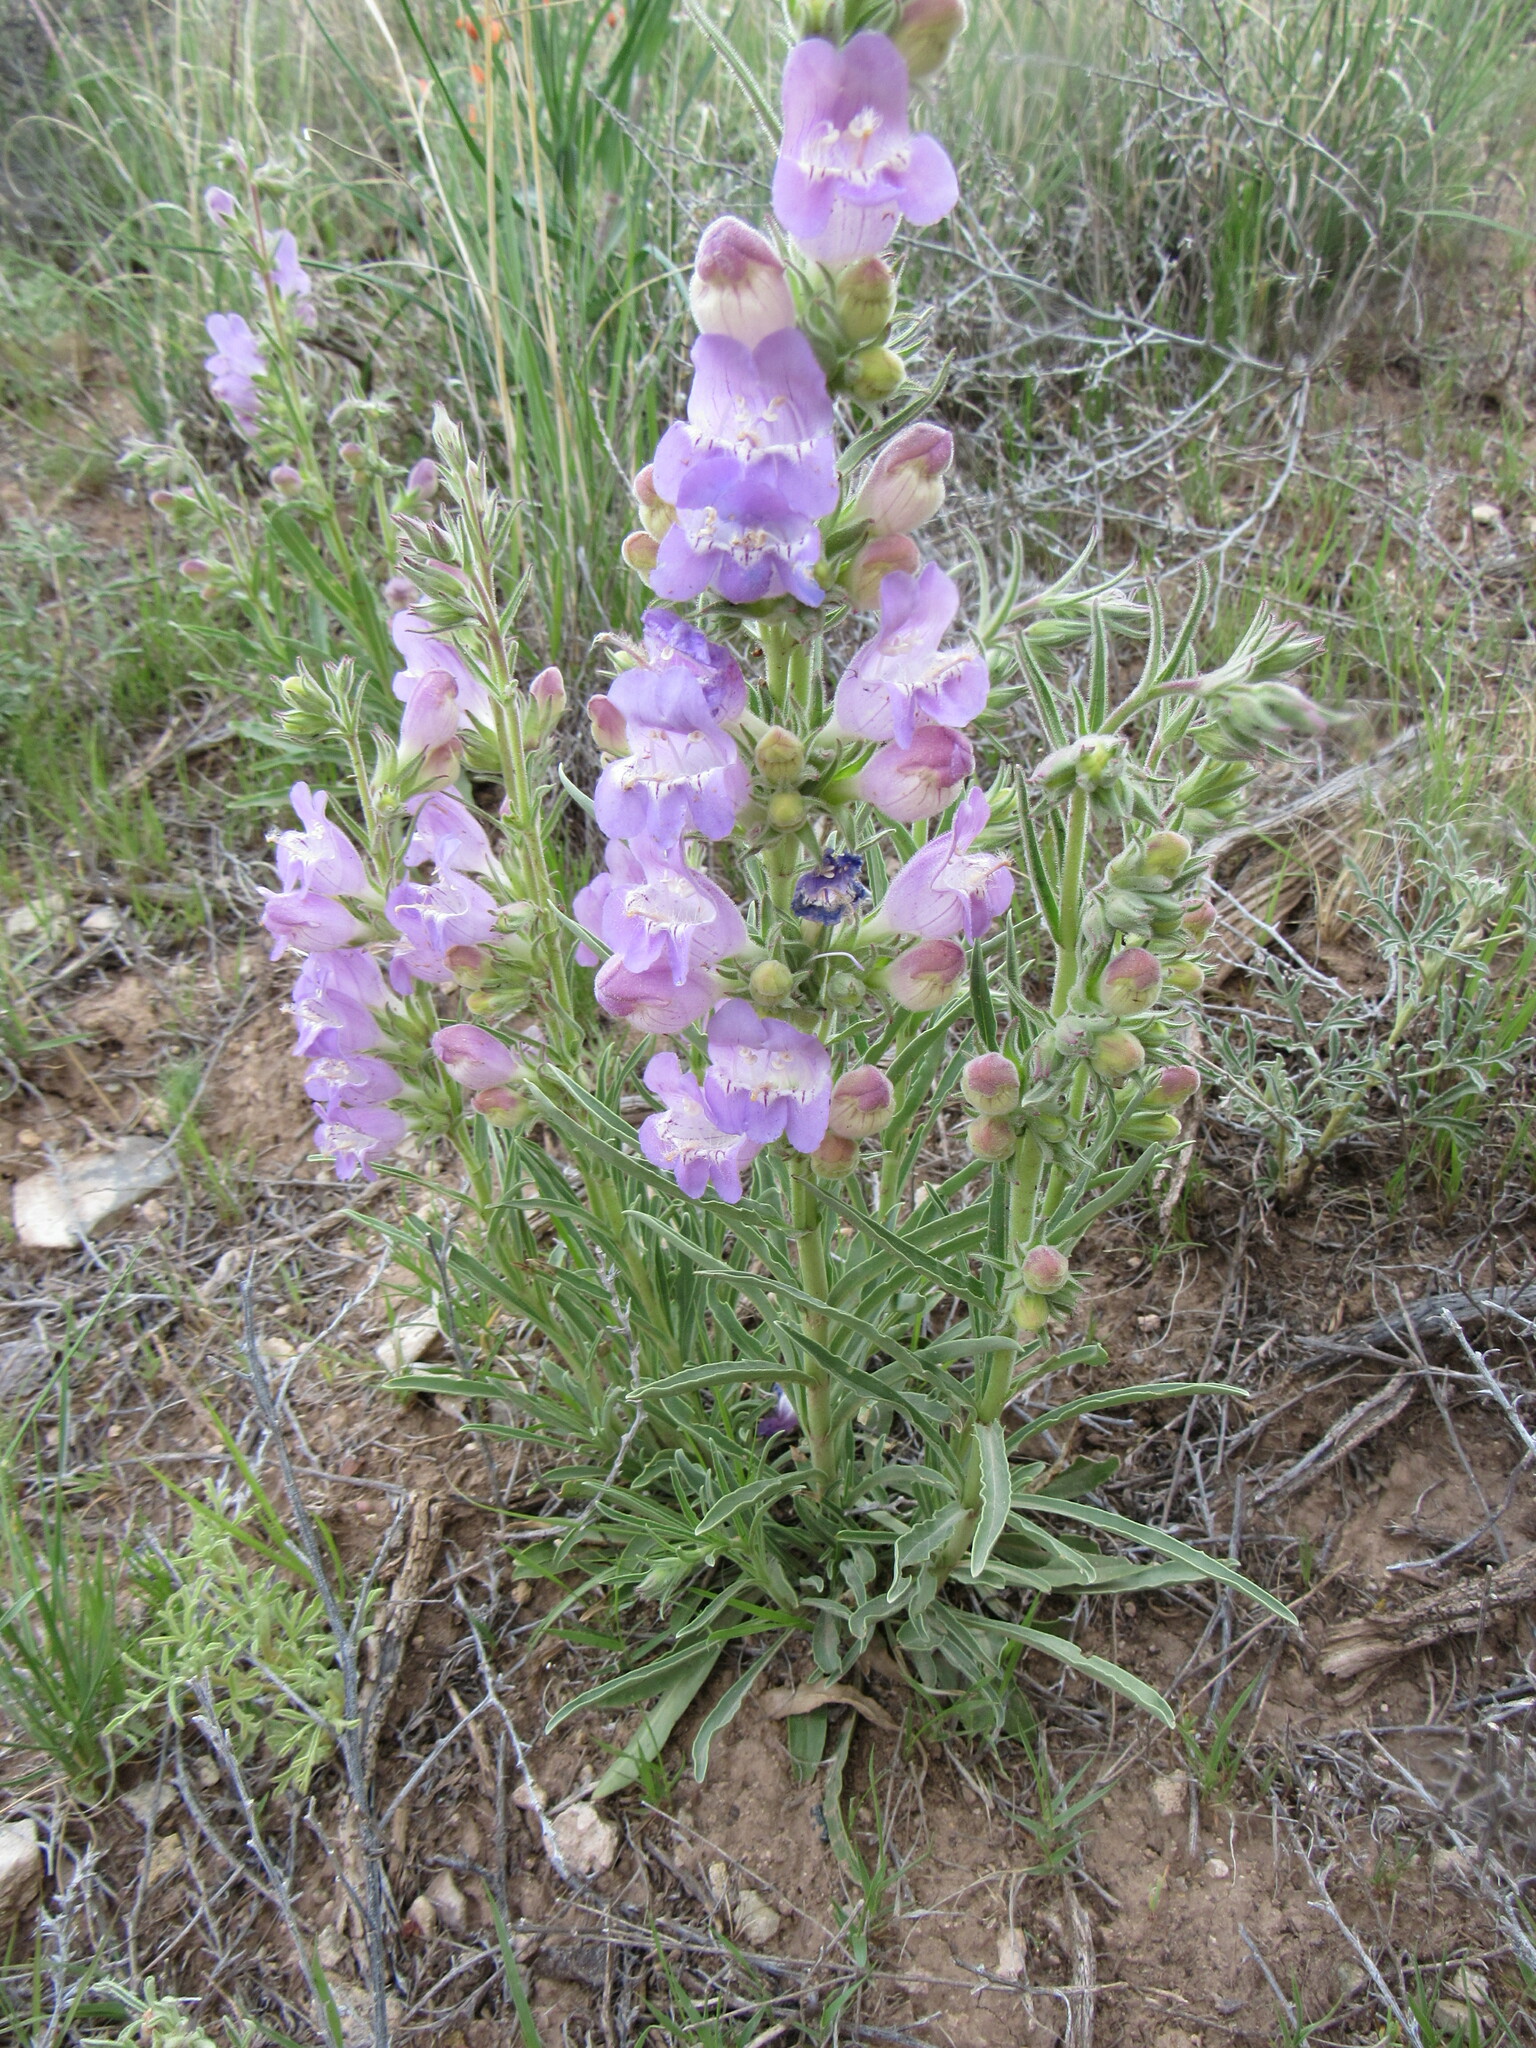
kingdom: Plantae
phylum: Tracheophyta
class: Magnoliopsida
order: Lamiales
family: Plantaginaceae
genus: Penstemon
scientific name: Penstemon jamesii
